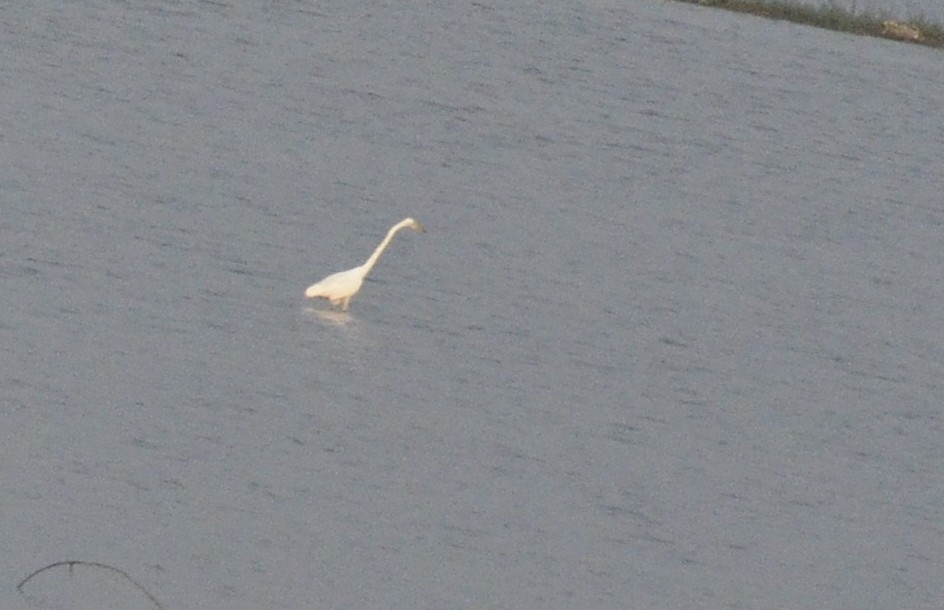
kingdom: Animalia
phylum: Chordata
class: Aves
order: Pelecaniformes
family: Ardeidae
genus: Ardea
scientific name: Ardea alba
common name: Great egret
